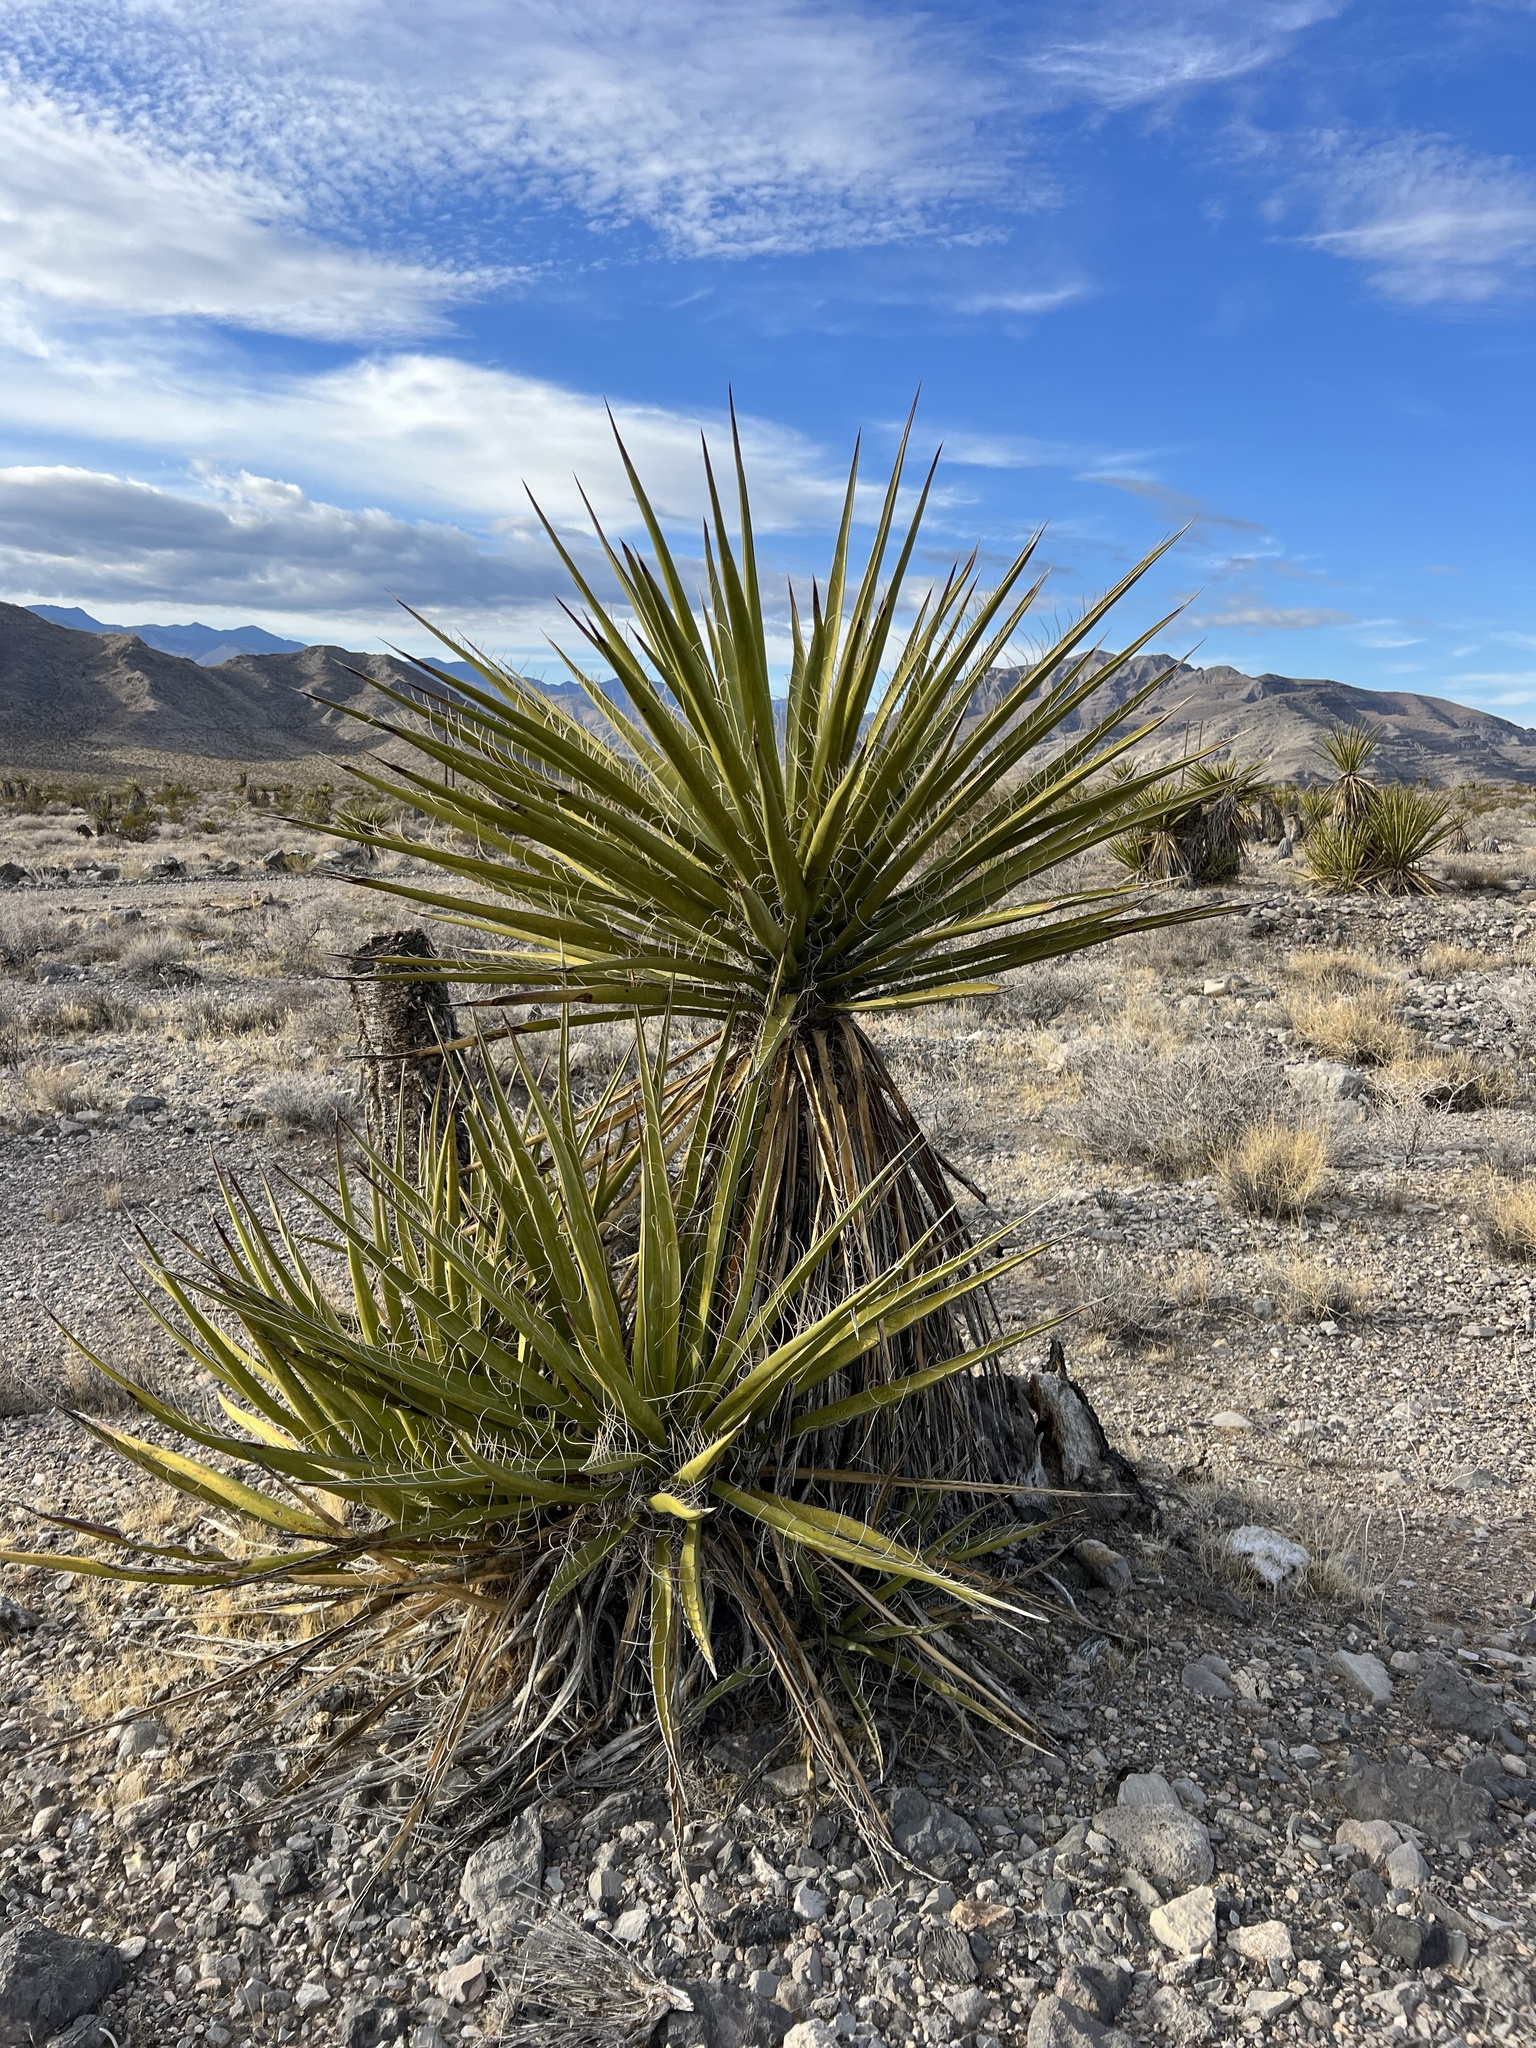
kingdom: Plantae
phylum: Tracheophyta
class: Liliopsida
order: Asparagales
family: Asparagaceae
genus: Yucca
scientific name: Yucca schidigera
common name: Mojave yucca
